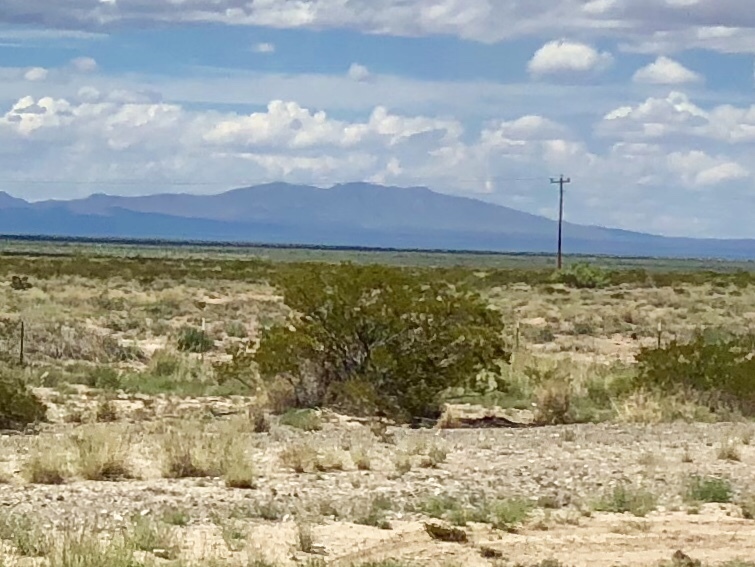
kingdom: Plantae
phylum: Tracheophyta
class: Magnoliopsida
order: Zygophyllales
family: Zygophyllaceae
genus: Larrea
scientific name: Larrea tridentata
